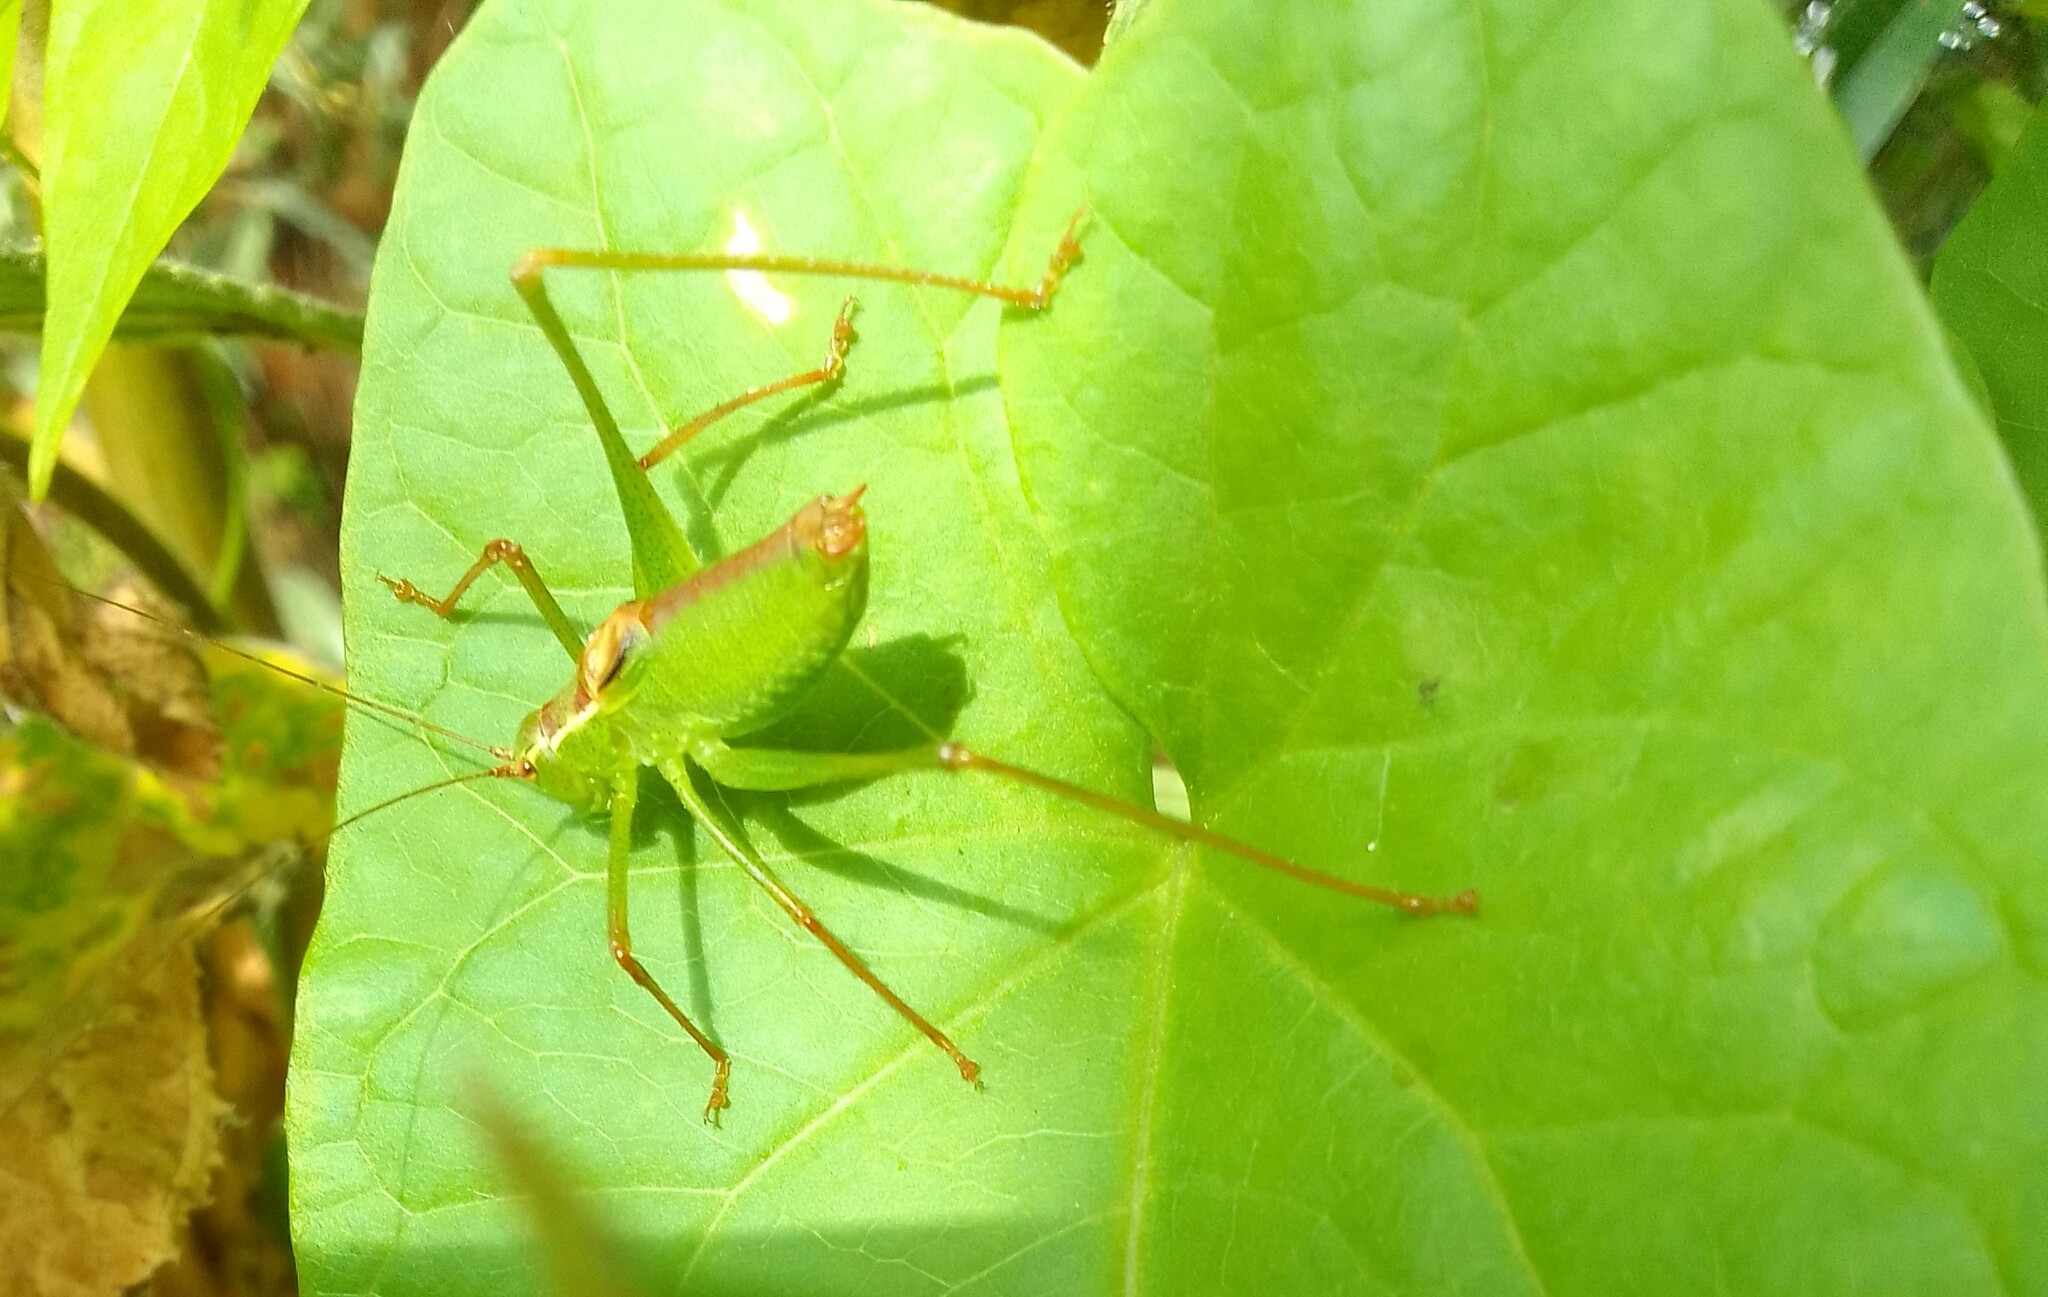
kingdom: Animalia
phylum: Arthropoda
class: Insecta
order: Orthoptera
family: Tettigoniidae
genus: Leptophyes
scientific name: Leptophyes punctatissima
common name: Speckled bush-cricket
